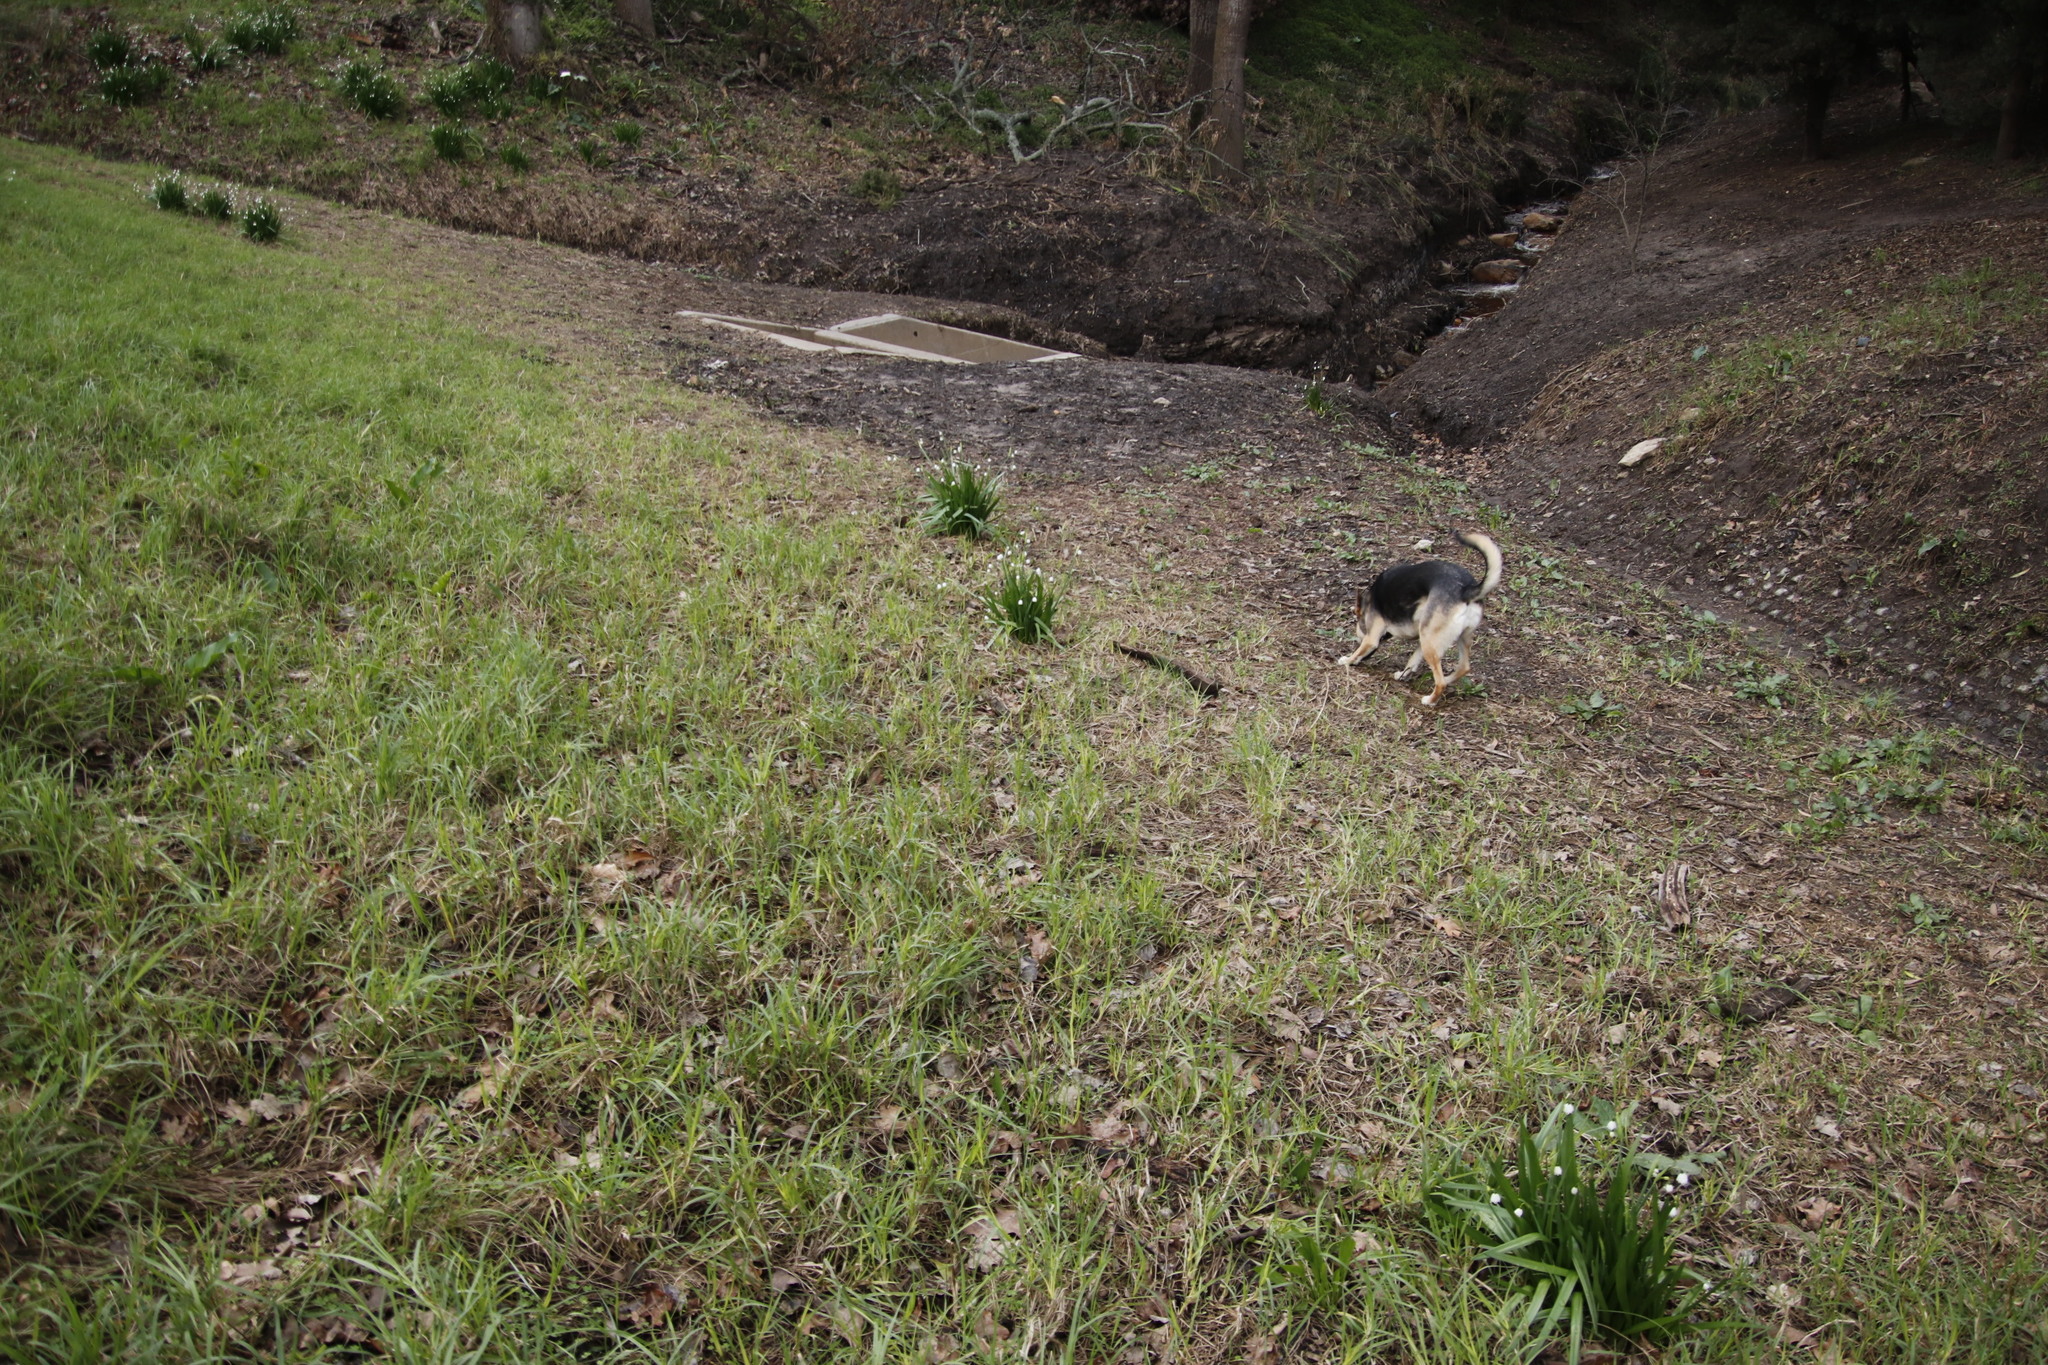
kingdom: Plantae
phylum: Tracheophyta
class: Liliopsida
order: Asparagales
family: Amaryllidaceae
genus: Leucojum
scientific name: Leucojum aestivum
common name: Summer snowflake
